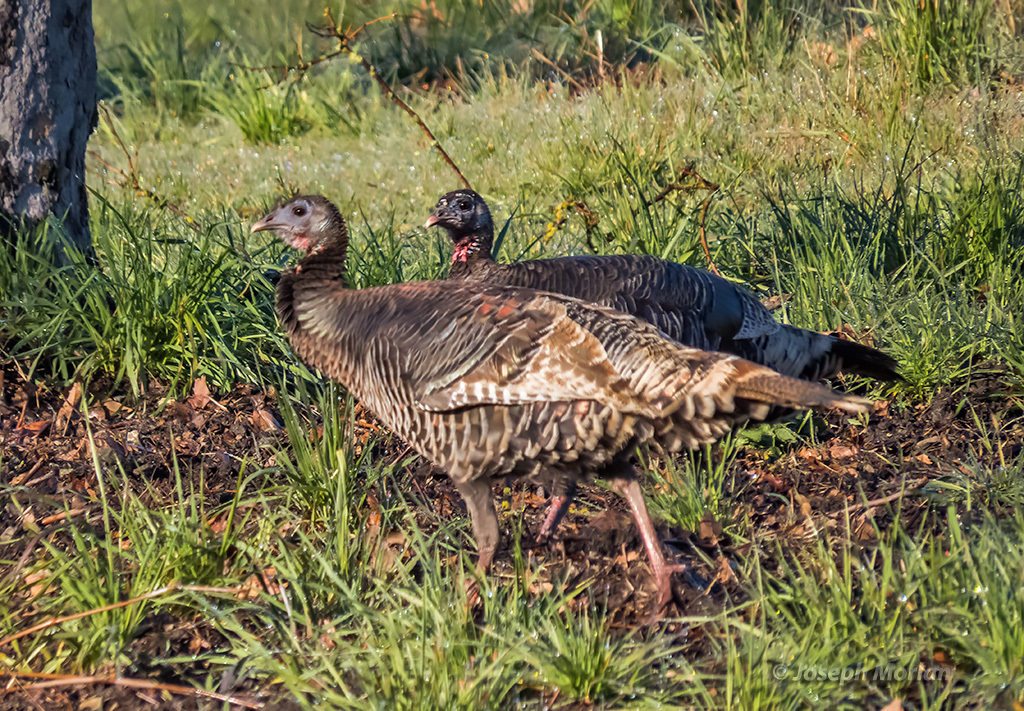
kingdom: Animalia
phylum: Chordata
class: Aves
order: Galliformes
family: Phasianidae
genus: Meleagris
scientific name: Meleagris gallopavo
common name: Wild turkey
